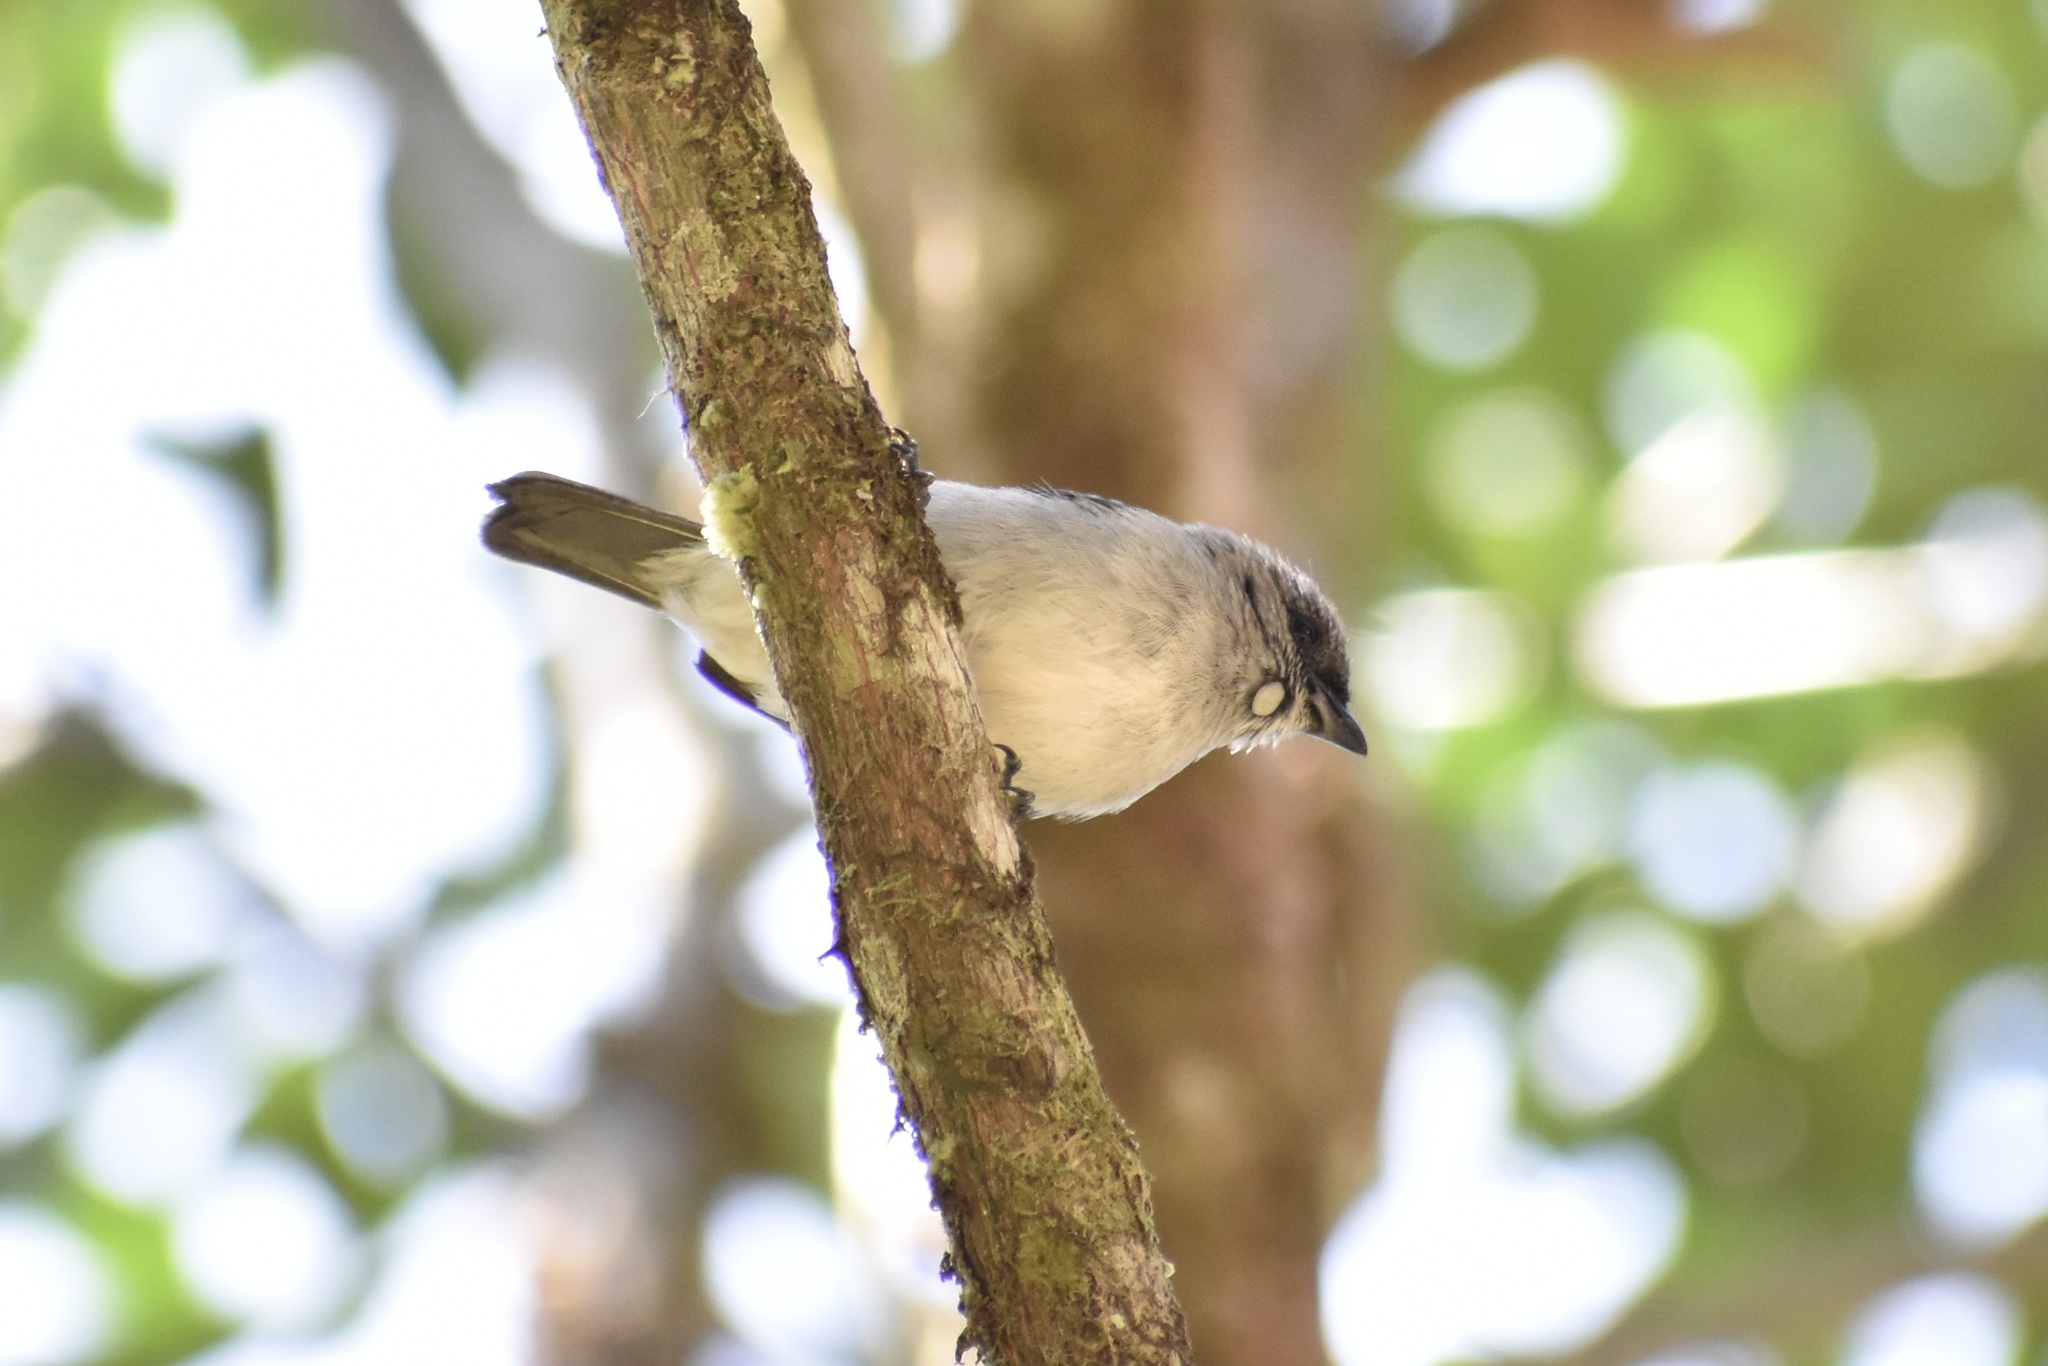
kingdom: Animalia
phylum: Chordata
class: Aves
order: Passeriformes
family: Thraupidae
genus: Tangara
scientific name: Tangara inornata
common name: Plain-colored tanager
